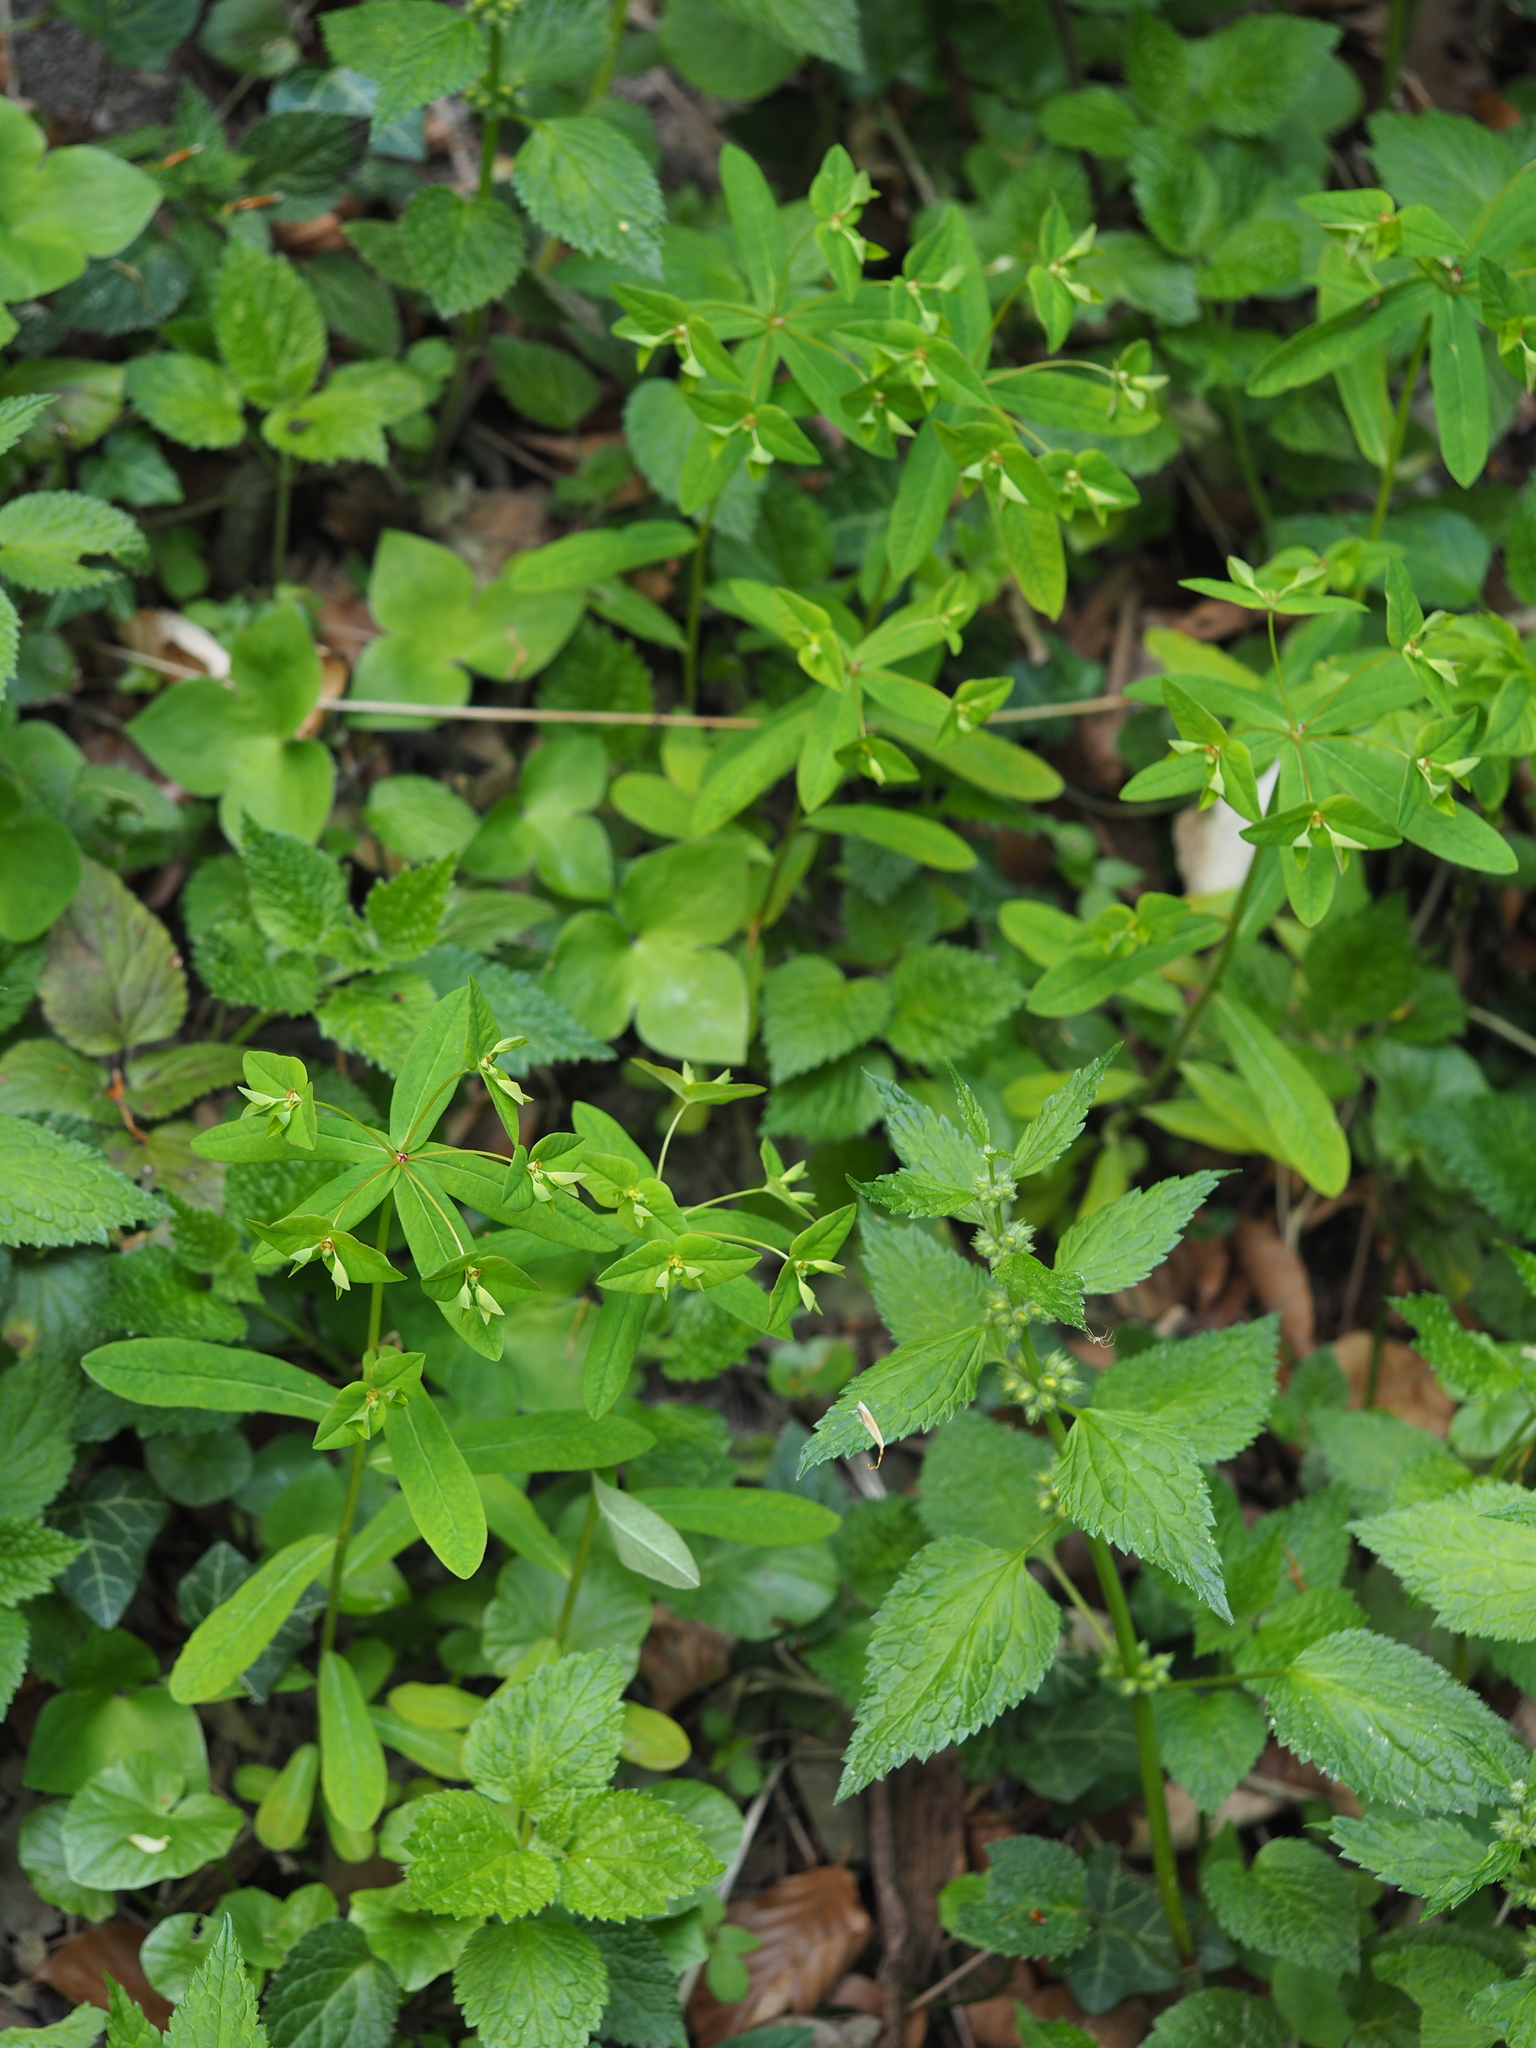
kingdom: Plantae
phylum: Tracheophyta
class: Magnoliopsida
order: Malpighiales
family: Euphorbiaceae
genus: Euphorbia
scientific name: Euphorbia dulcis
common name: Sweet spurge
